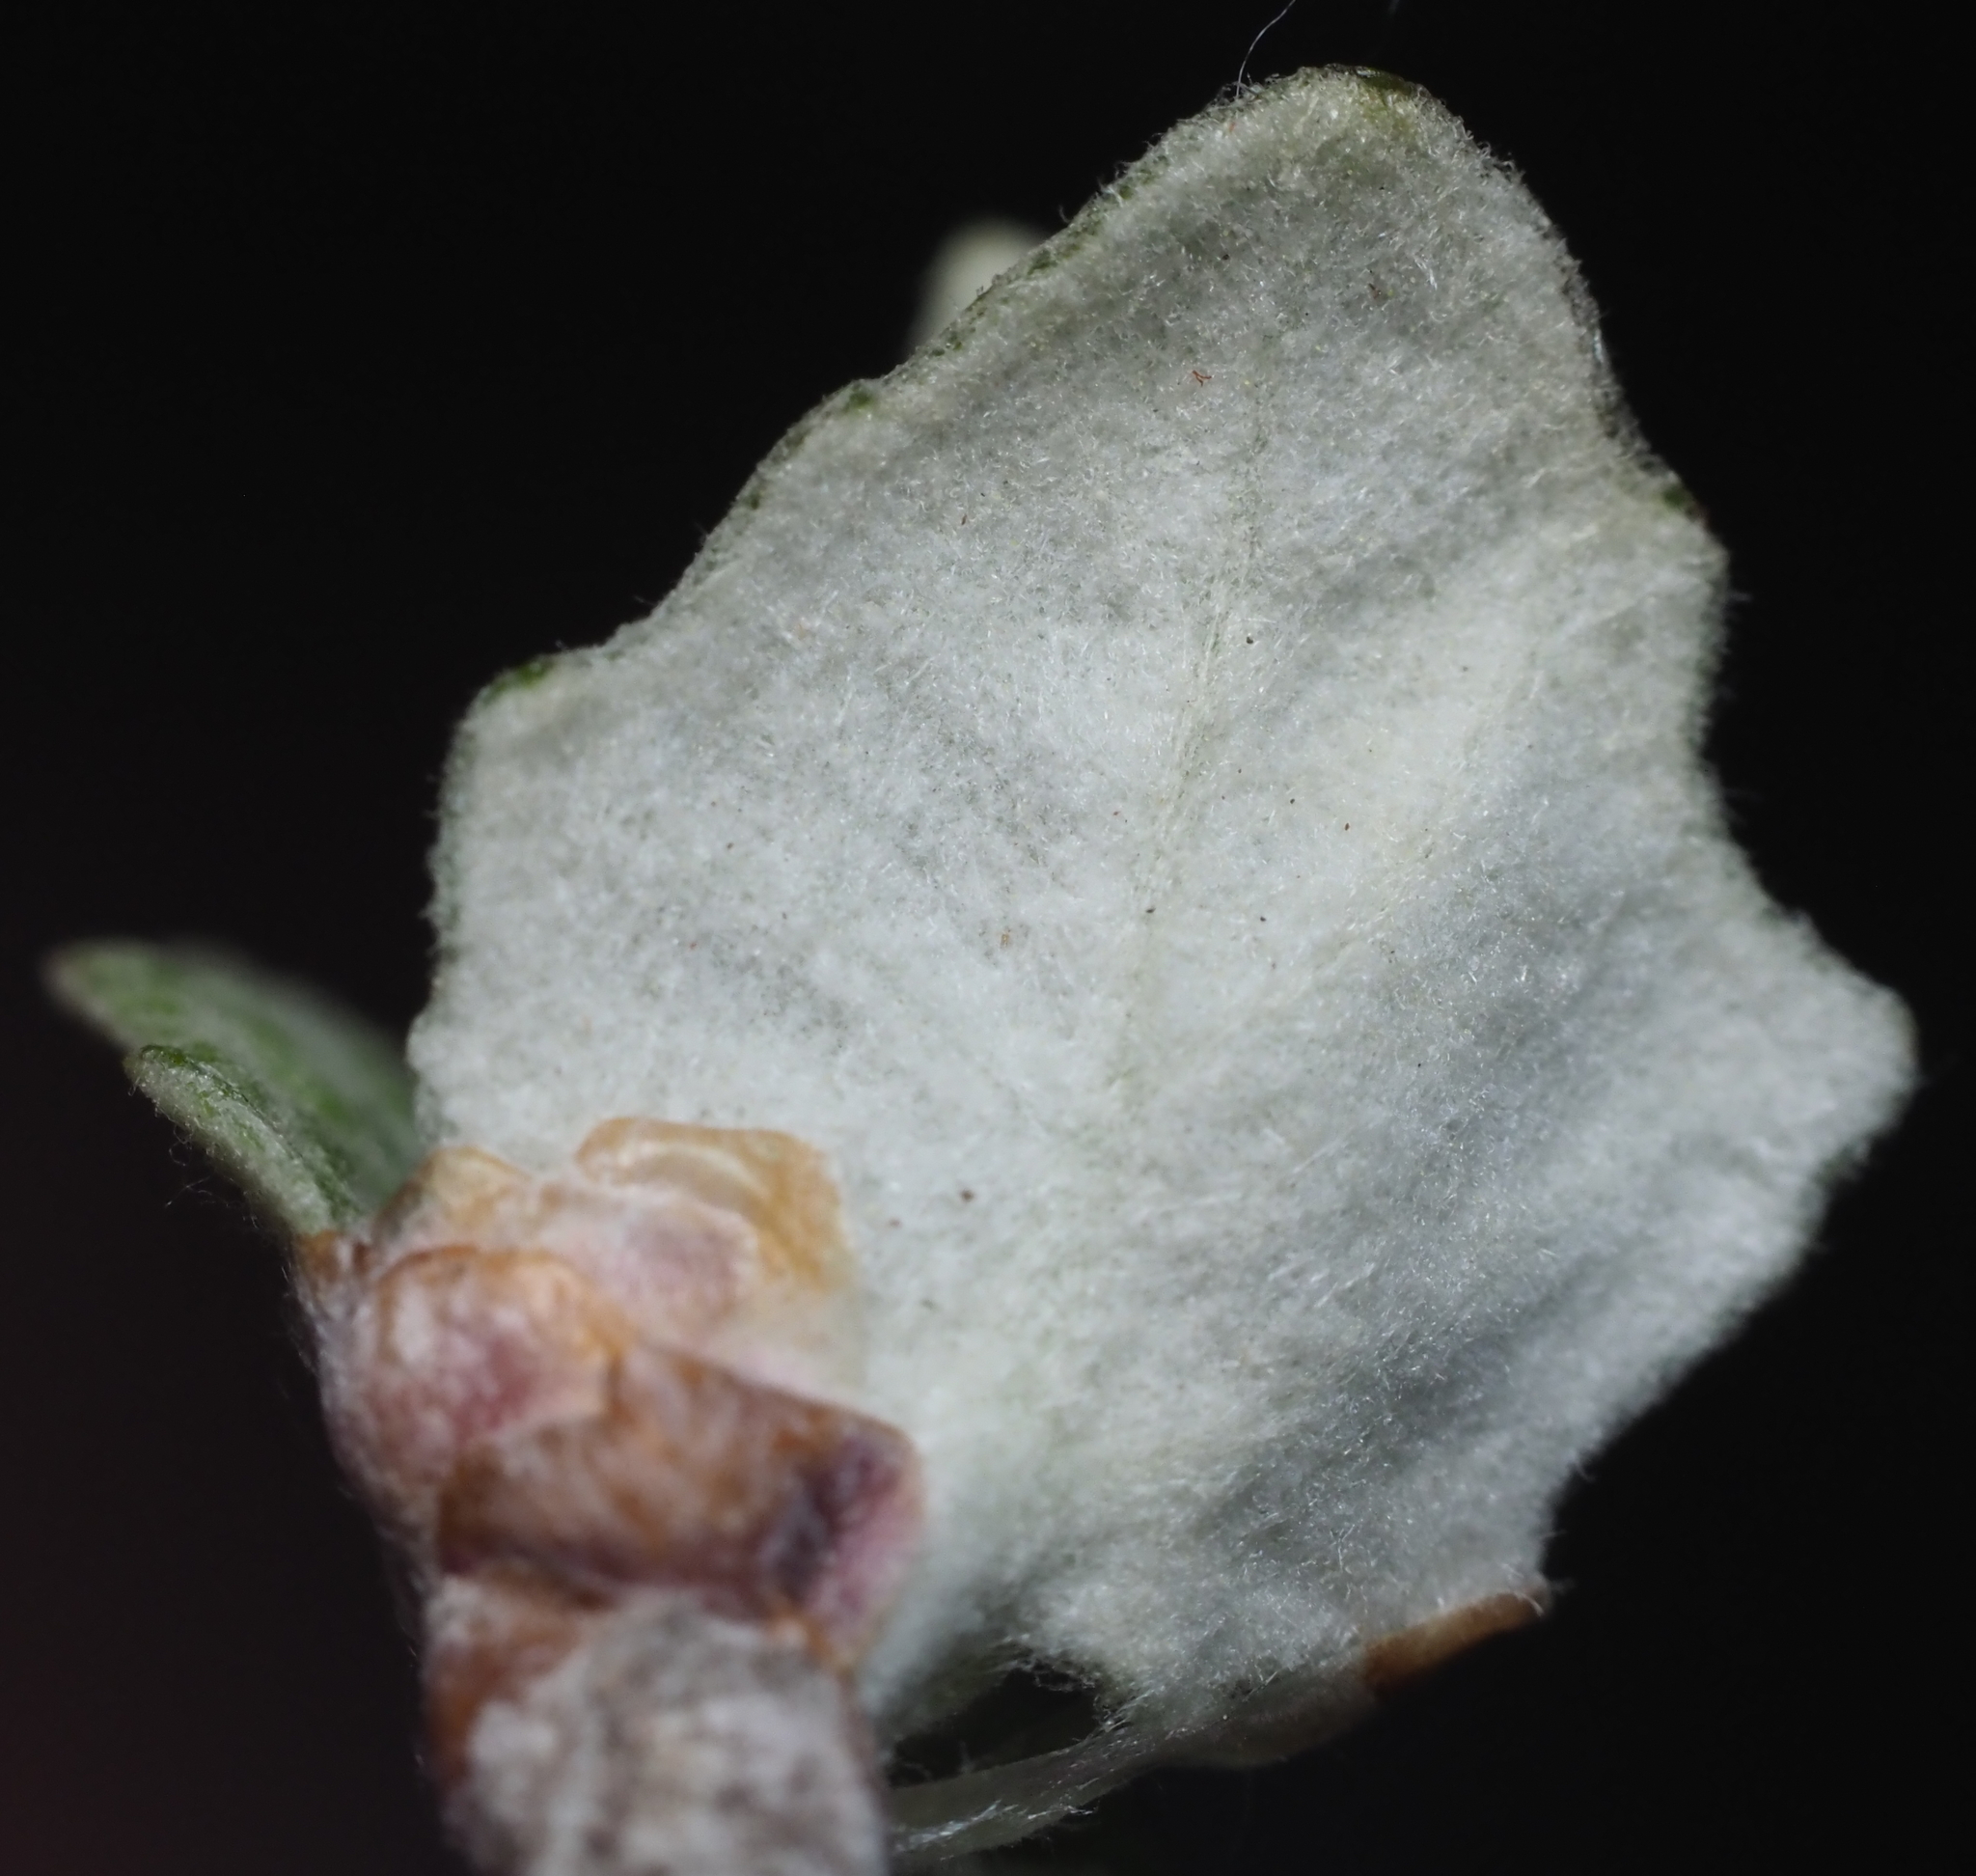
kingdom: Plantae
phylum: Tracheophyta
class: Magnoliopsida
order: Malpighiales
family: Salicaceae
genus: Populus
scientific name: Populus alba
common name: White poplar
